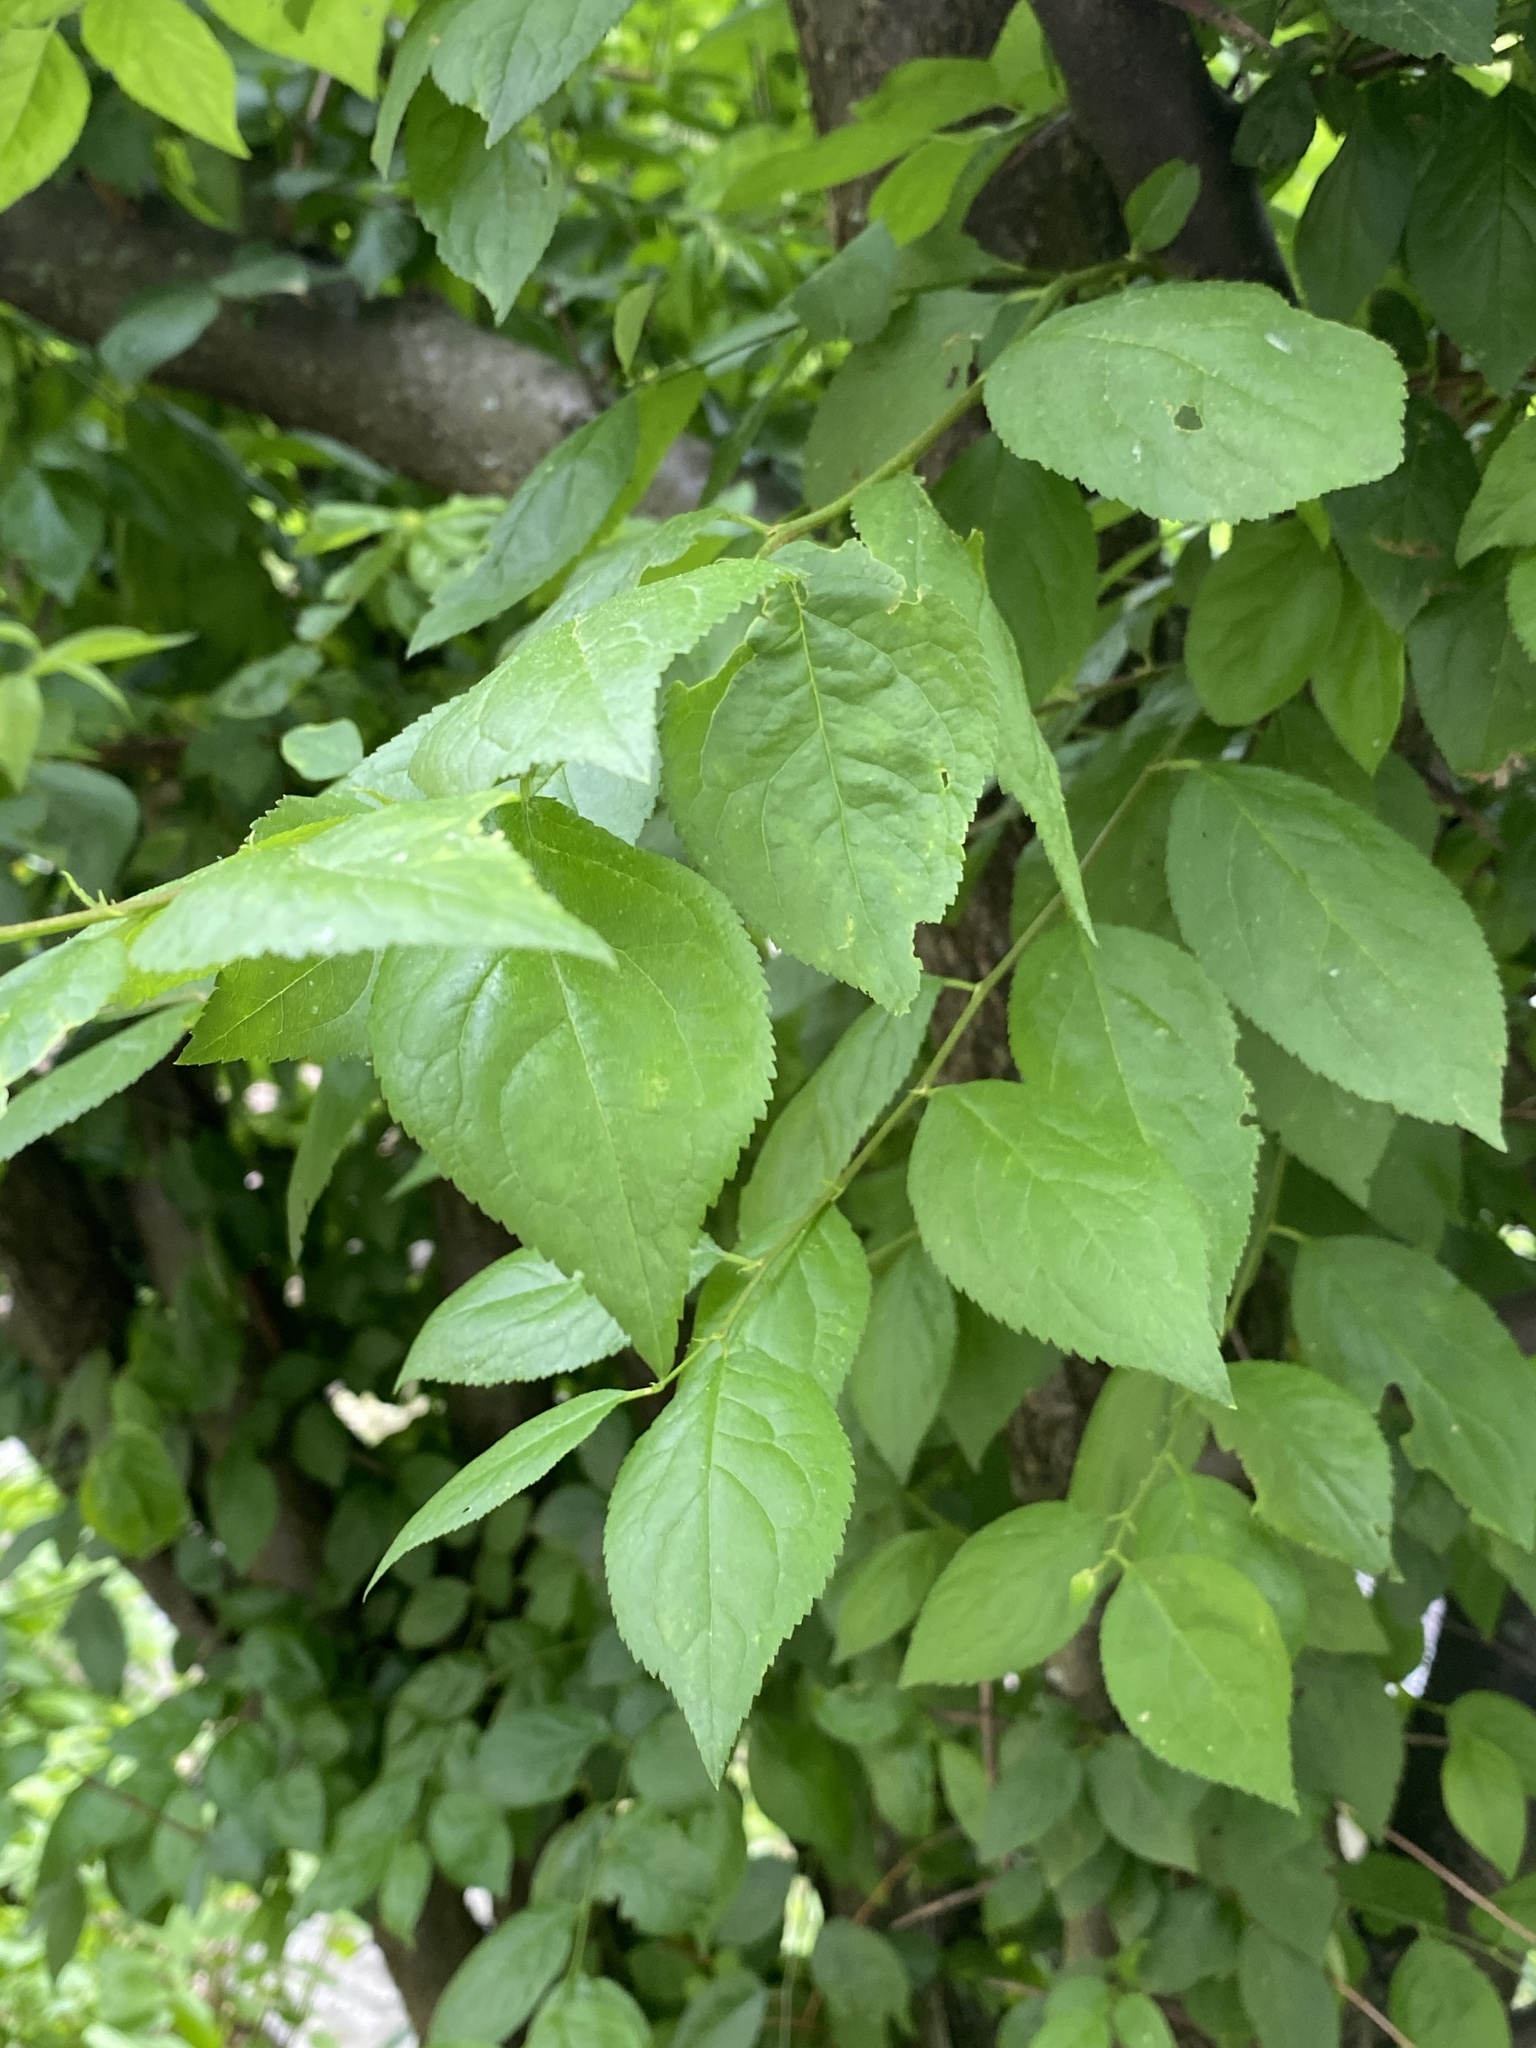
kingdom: Fungi
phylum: Ascomycota
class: Dothideomycetes
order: Venturiales
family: Venturiaceae
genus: Apiosporina
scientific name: Apiosporina morbosa
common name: Black knot
